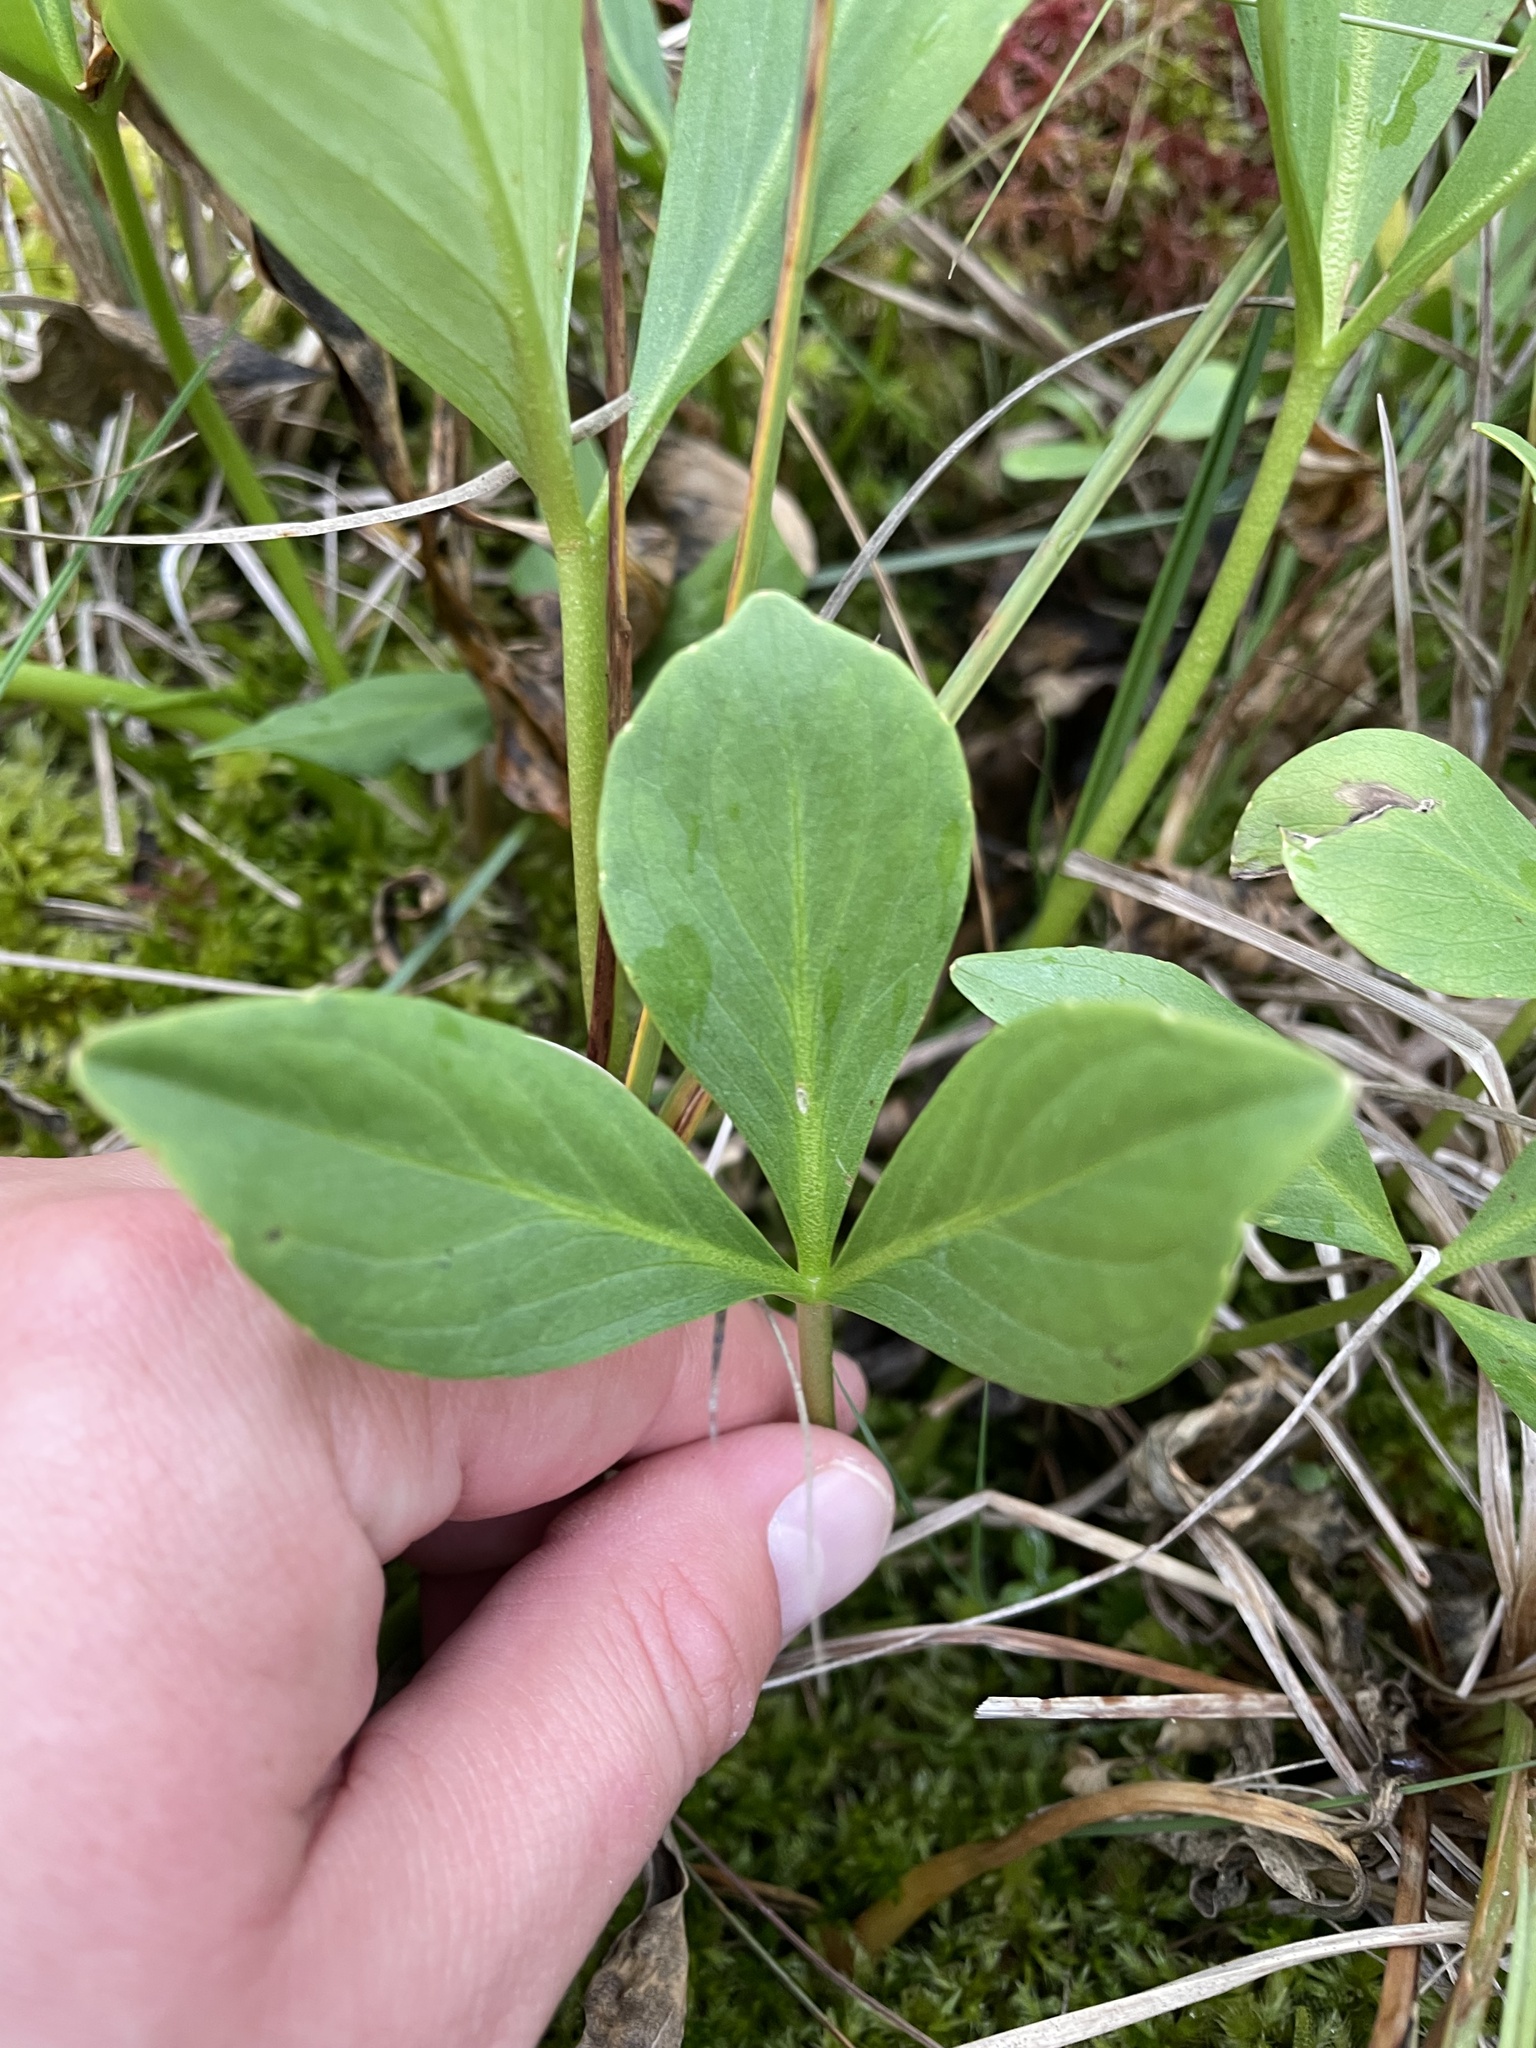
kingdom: Plantae
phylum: Tracheophyta
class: Magnoliopsida
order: Asterales
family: Menyanthaceae
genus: Menyanthes
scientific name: Menyanthes trifoliata
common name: Bogbean
